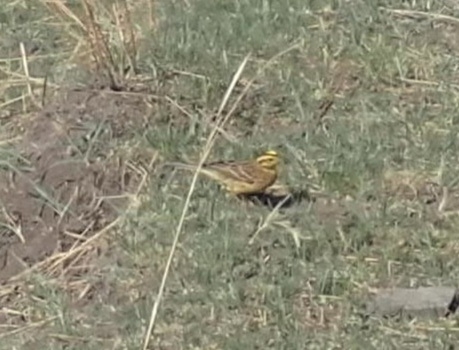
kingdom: Animalia
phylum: Chordata
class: Aves
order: Passeriformes
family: Emberizidae
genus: Emberiza
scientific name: Emberiza citrinella
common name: Yellowhammer
